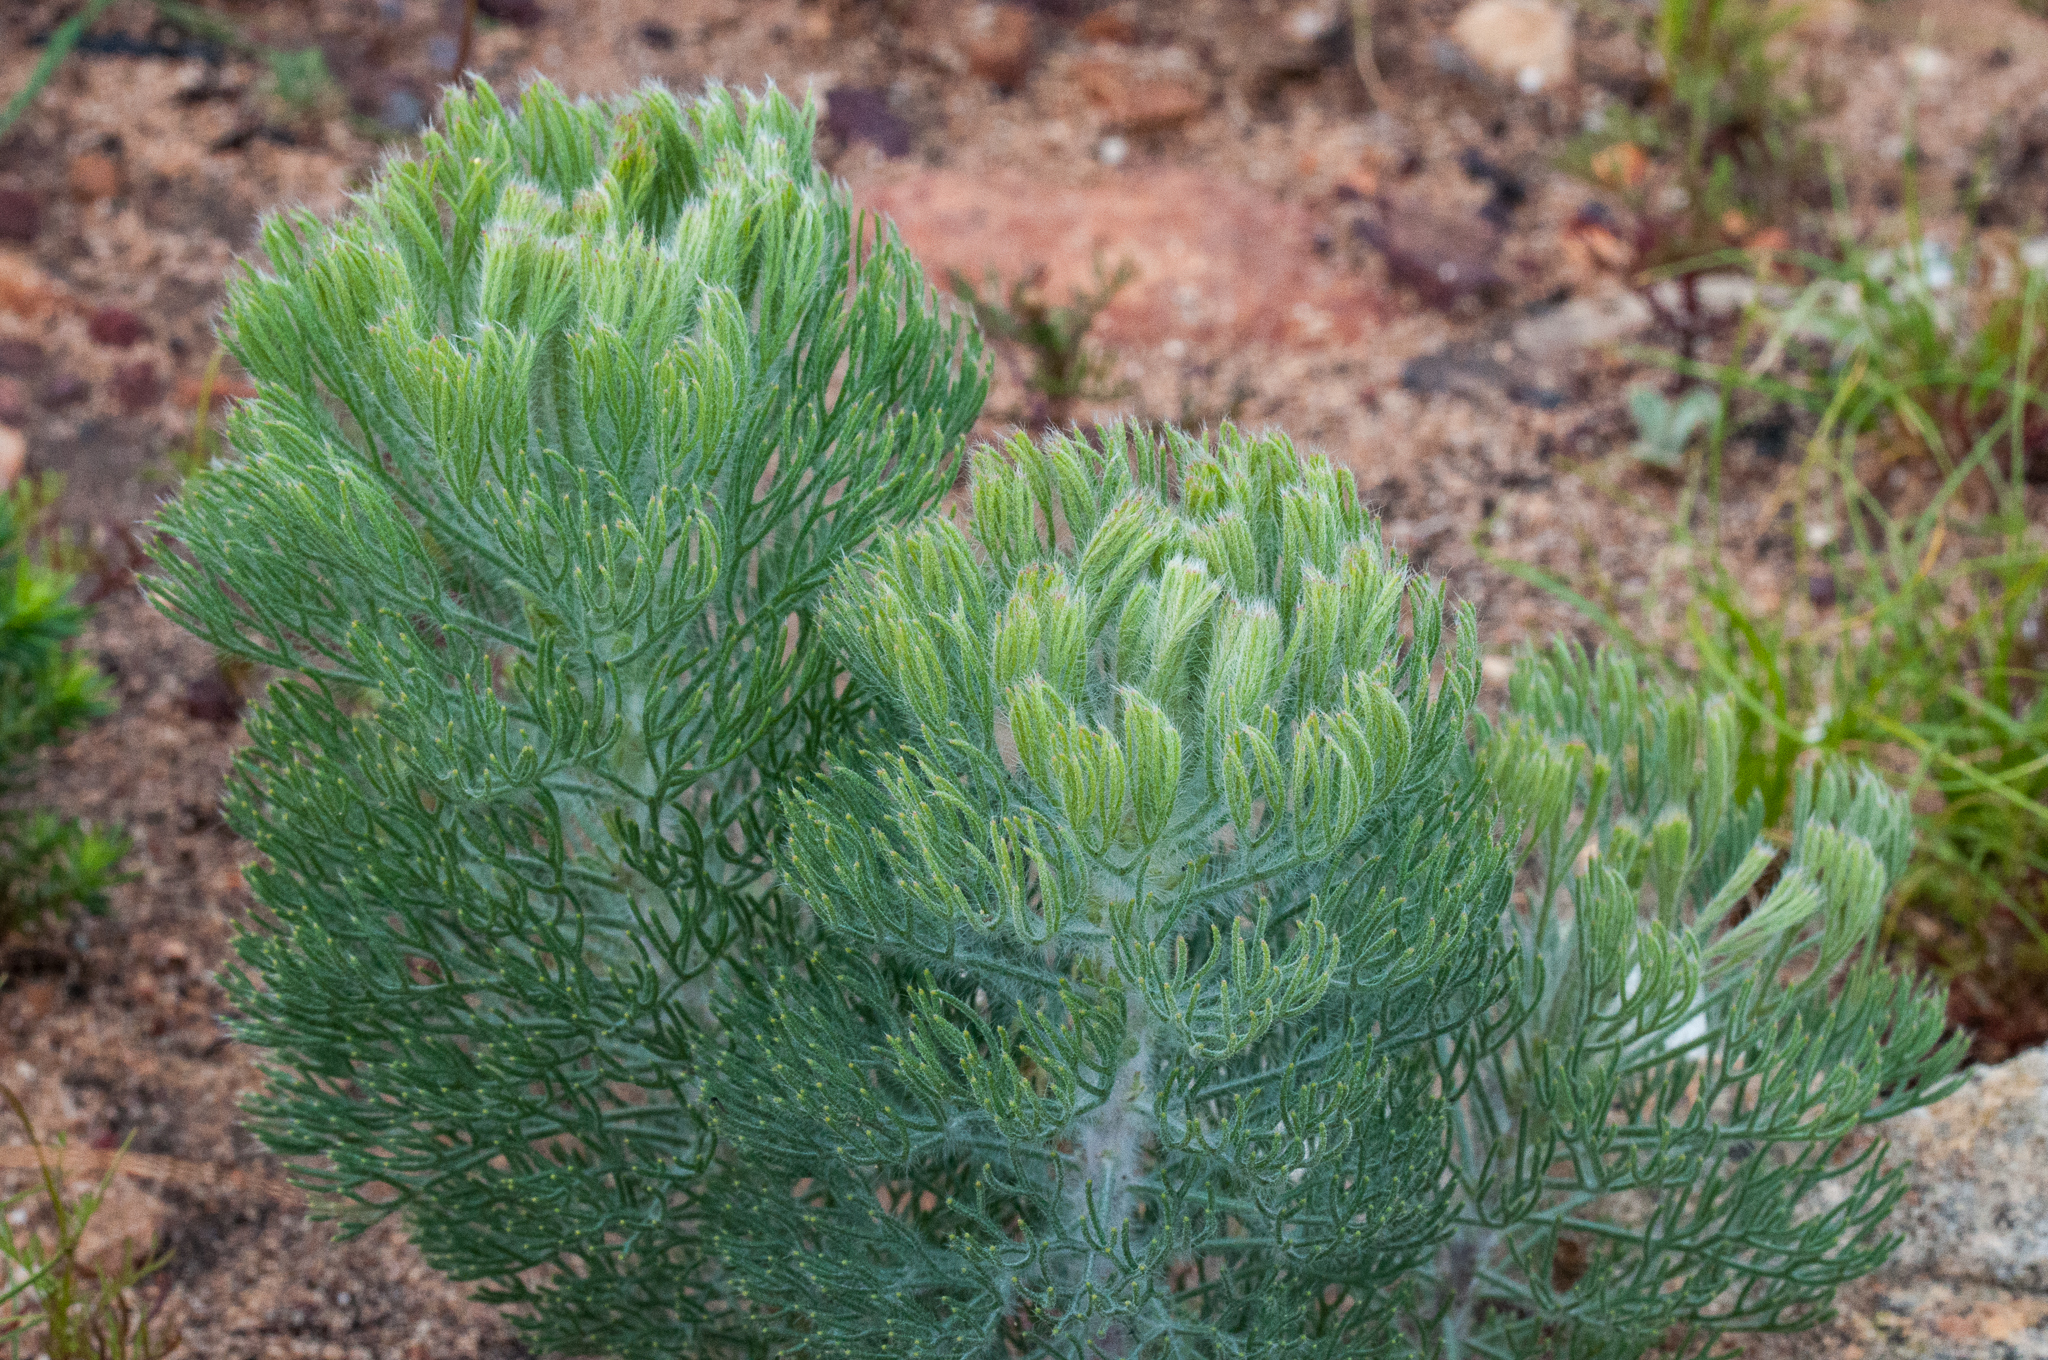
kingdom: Plantae
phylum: Tracheophyta
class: Magnoliopsida
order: Proteales
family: Proteaceae
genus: Paranomus
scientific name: Paranomus bracteolaris
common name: Bokkeveld tree sceptre
